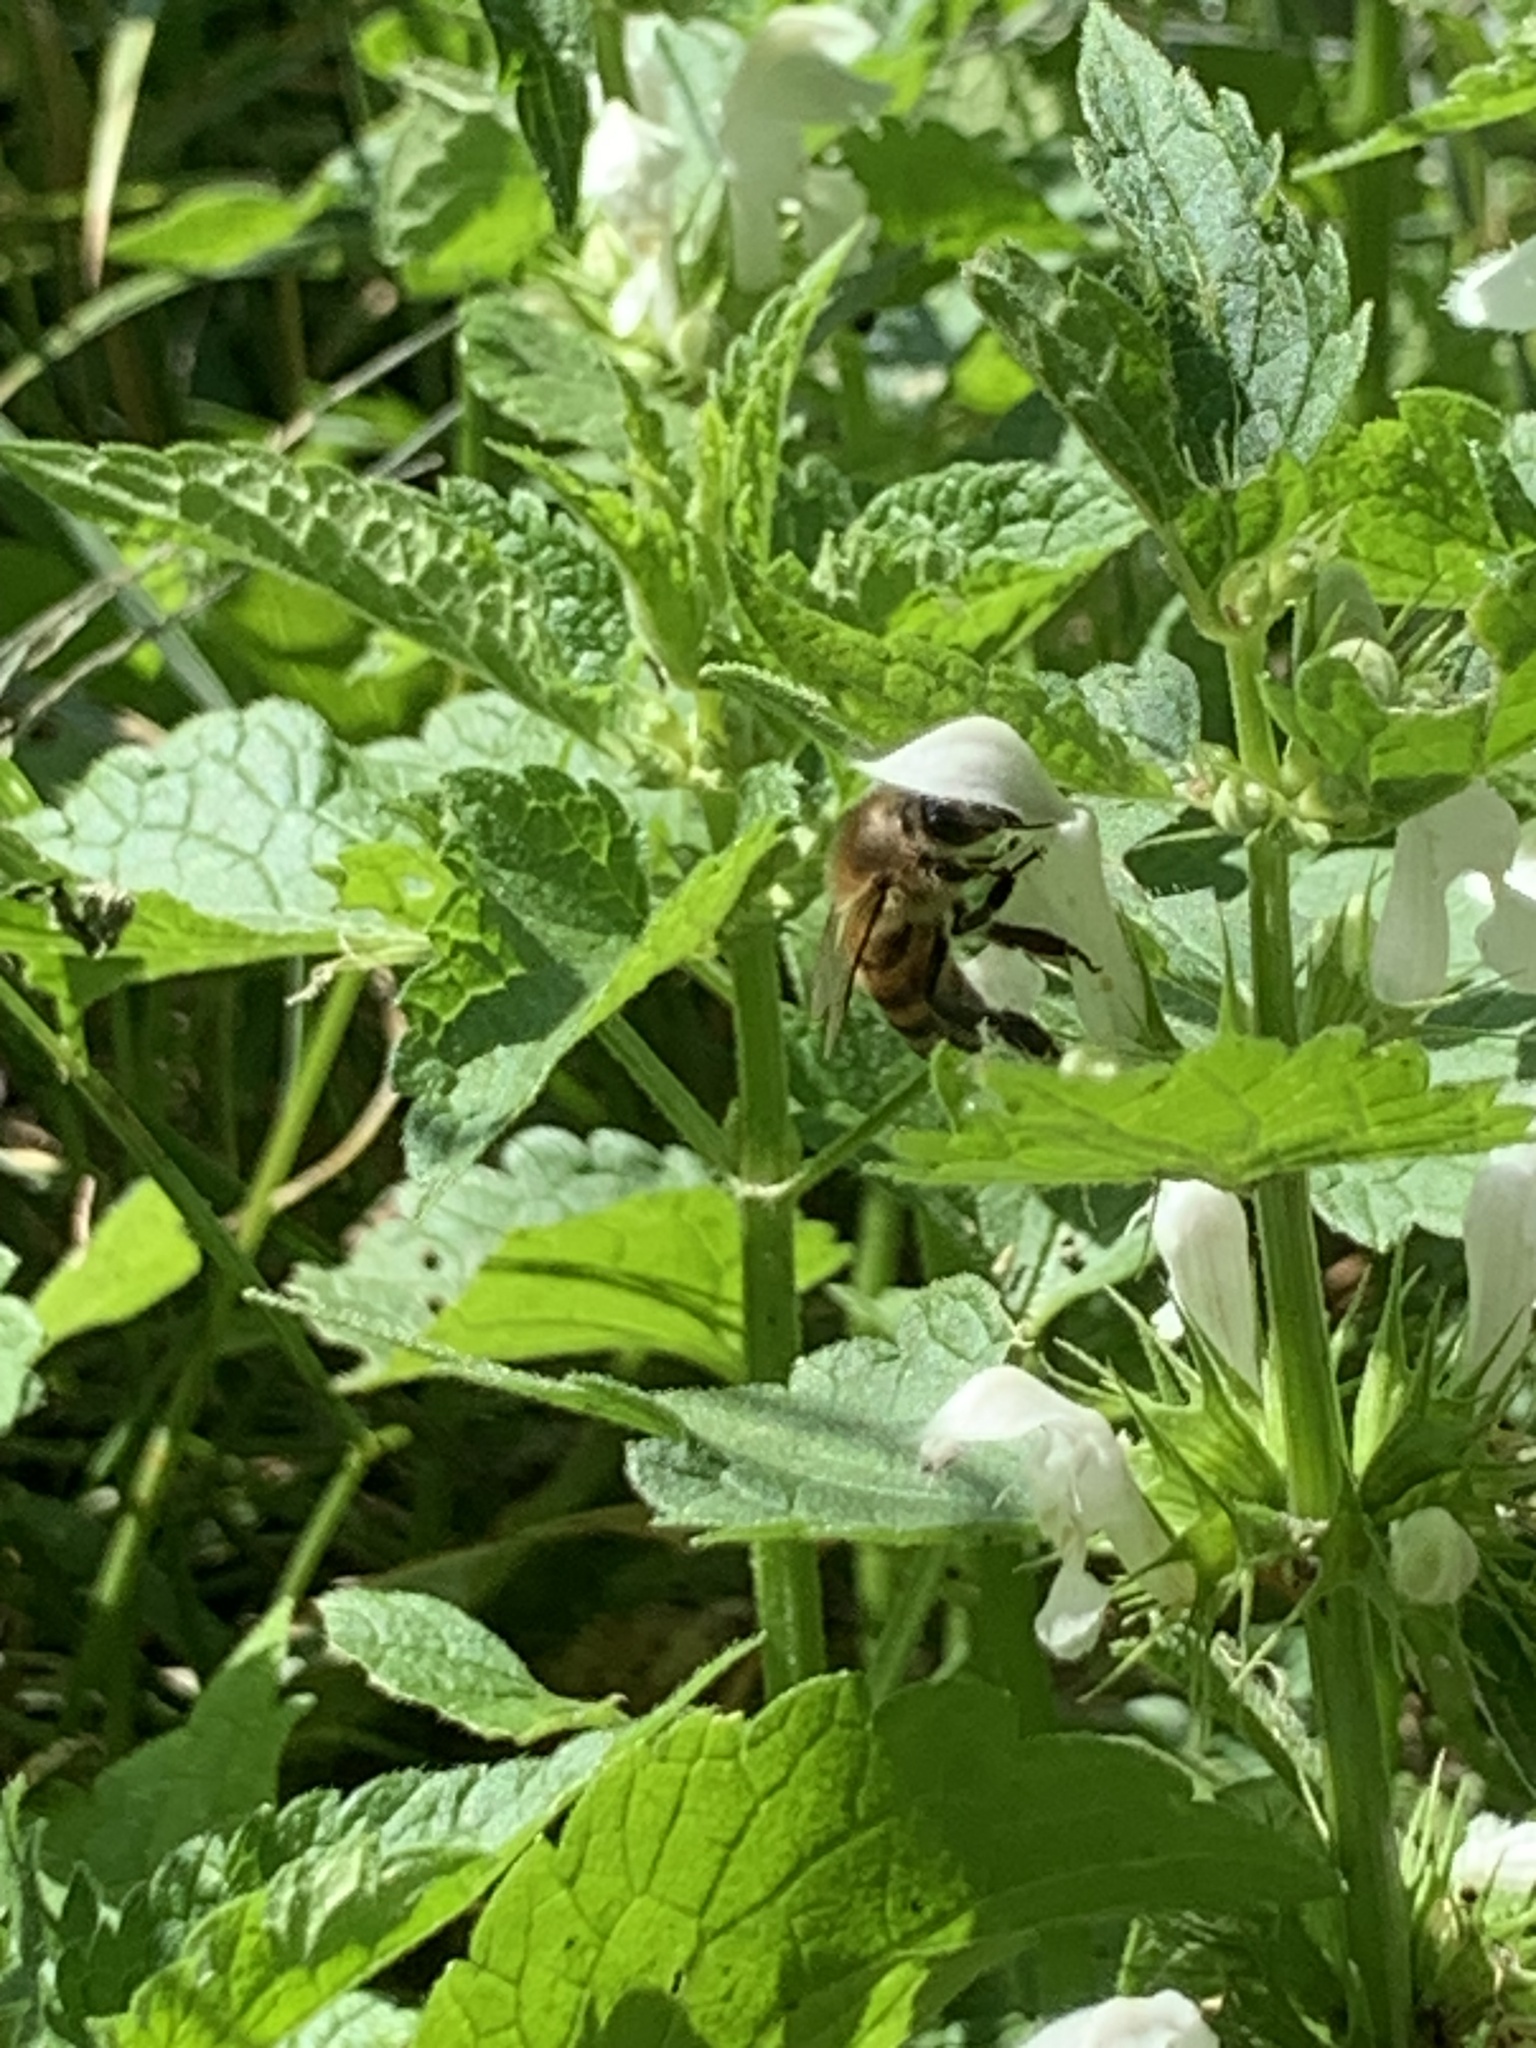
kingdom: Animalia
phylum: Arthropoda
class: Insecta
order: Hymenoptera
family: Apidae
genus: Apis
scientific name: Apis mellifera
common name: Honey bee
